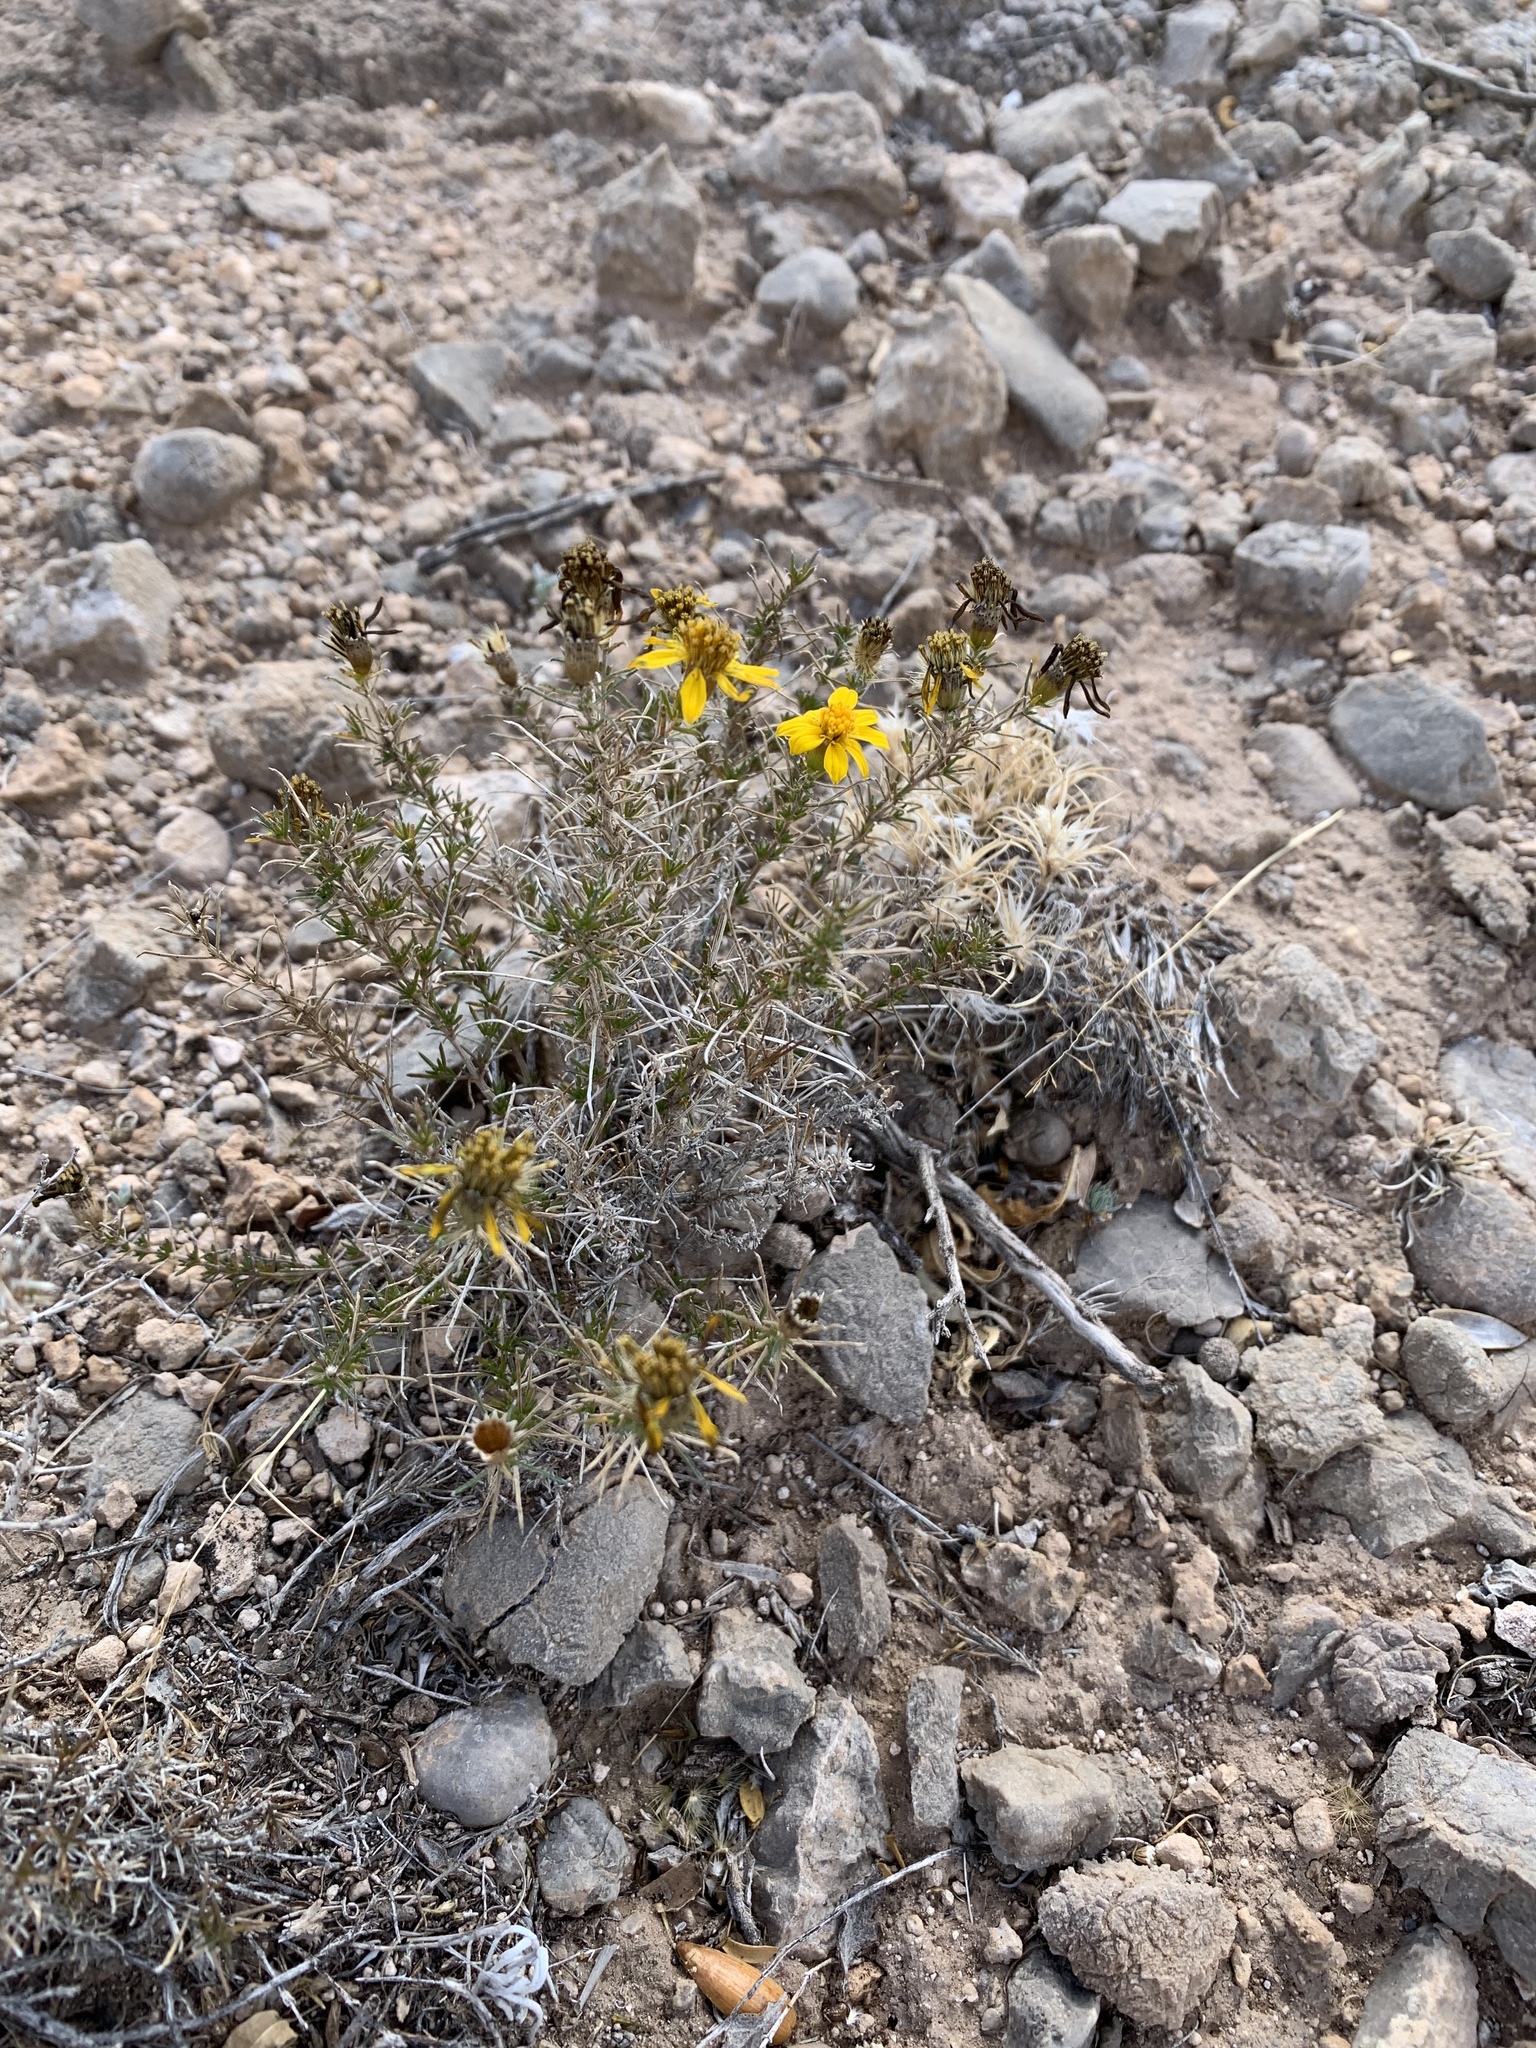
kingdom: Plantae
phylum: Tracheophyta
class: Magnoliopsida
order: Asterales
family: Asteraceae
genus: Thymophylla
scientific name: Thymophylla acerosa
